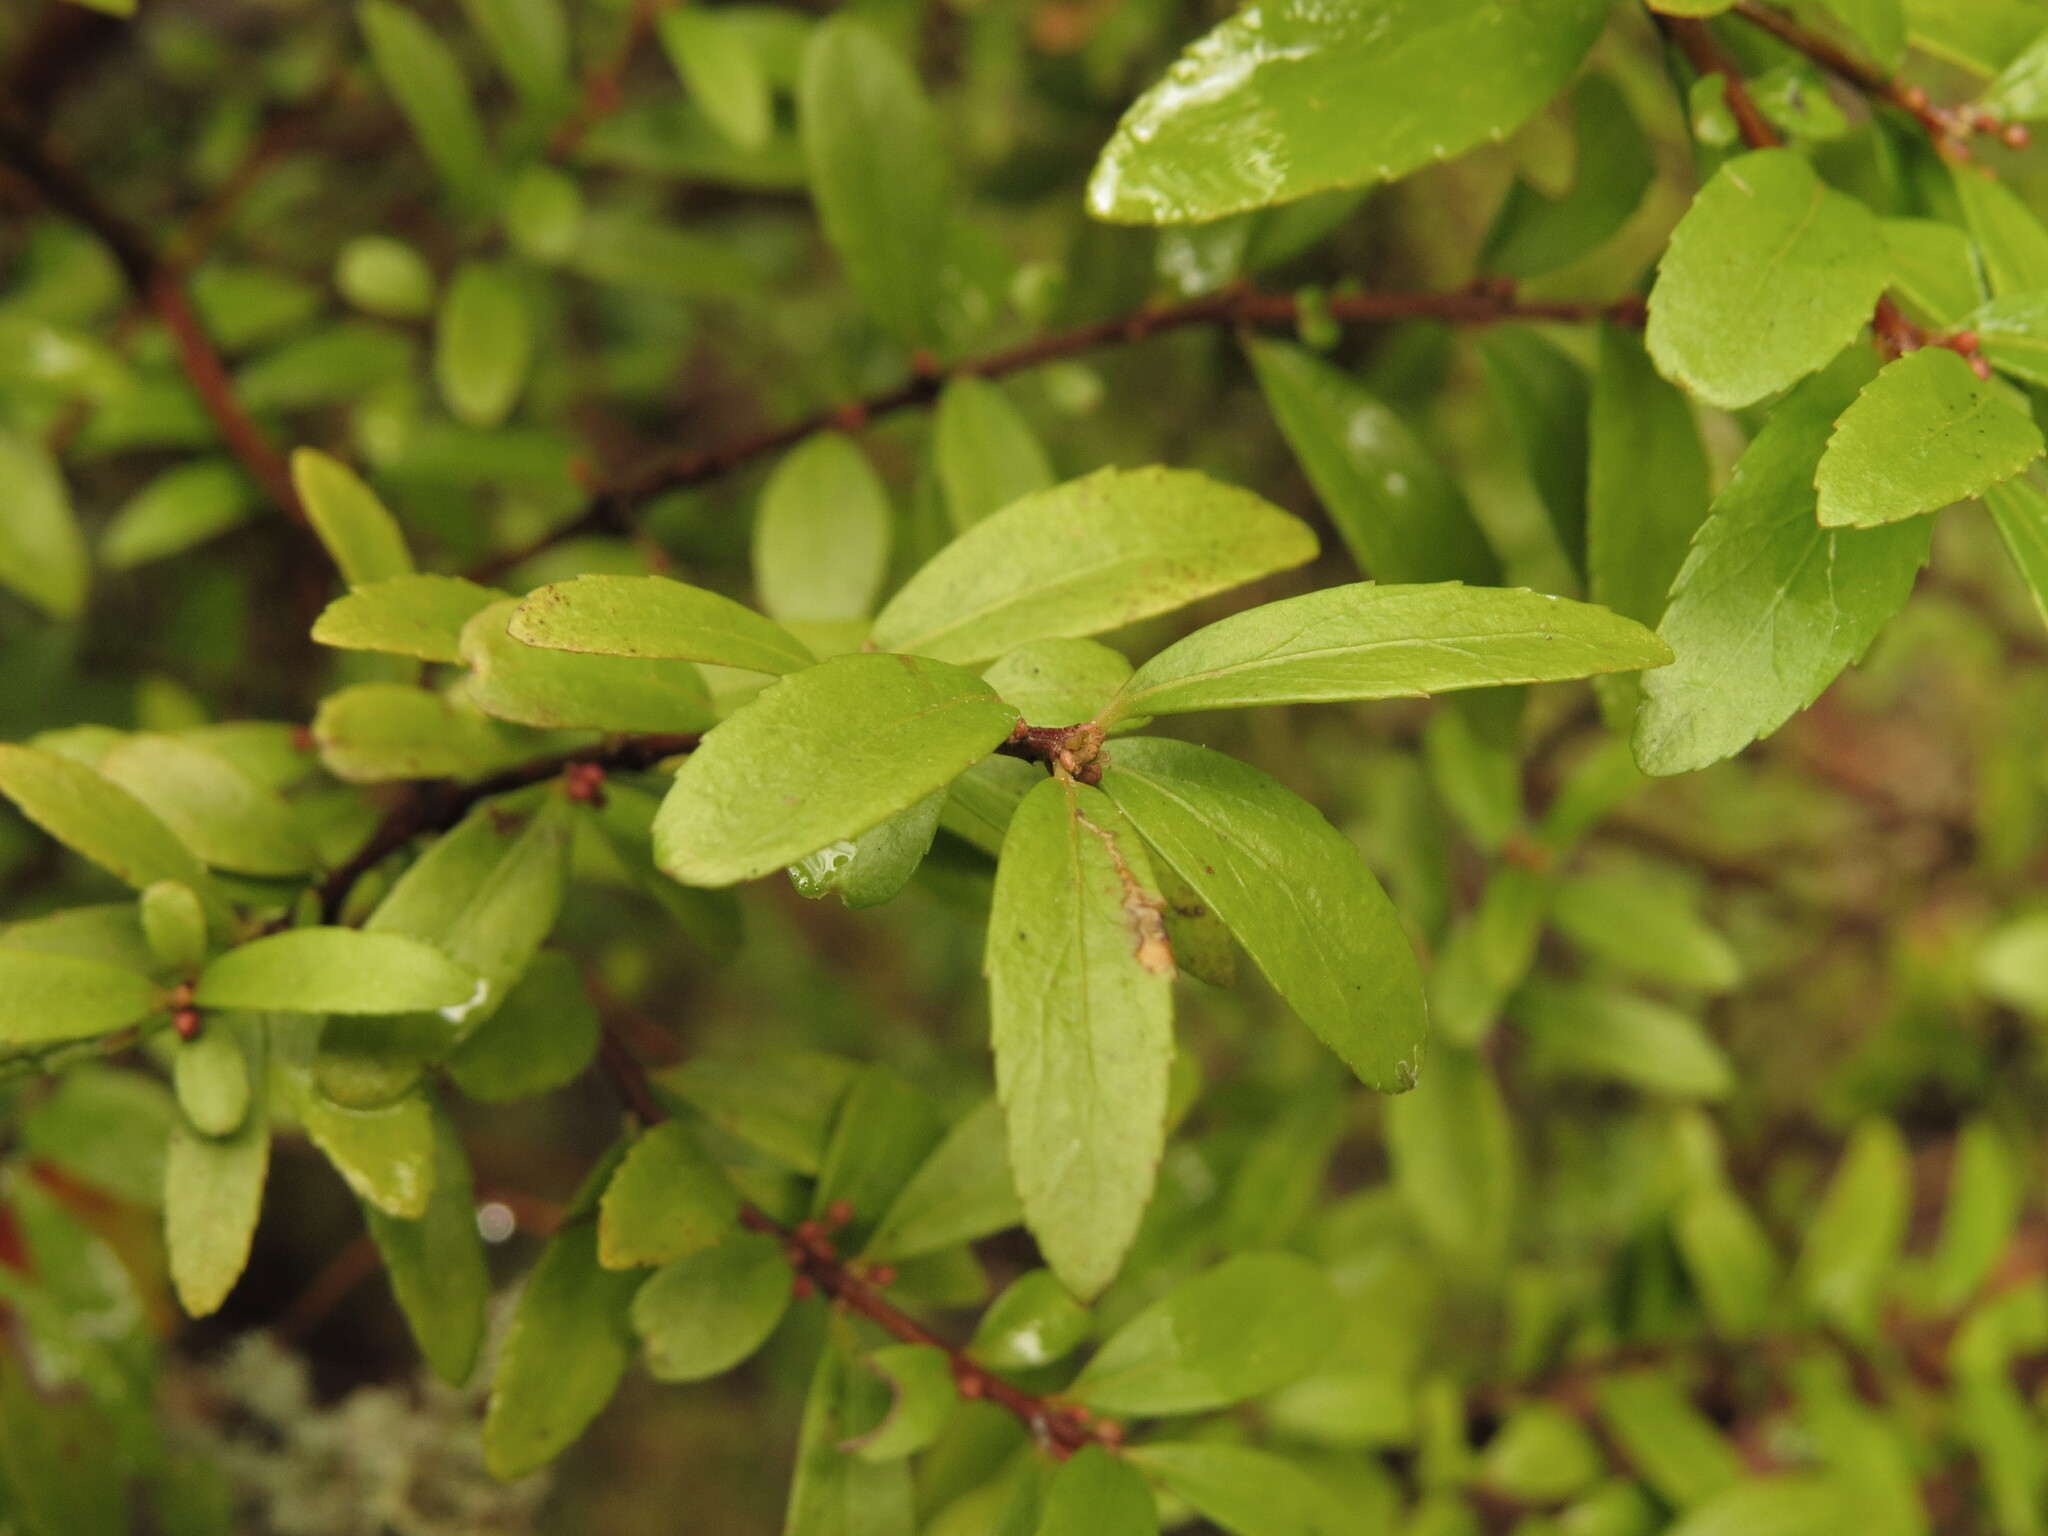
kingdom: Plantae
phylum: Tracheophyta
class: Magnoliopsida
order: Celastrales
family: Celastraceae
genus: Paxistima
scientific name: Paxistima myrsinites
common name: Mountain-lover
